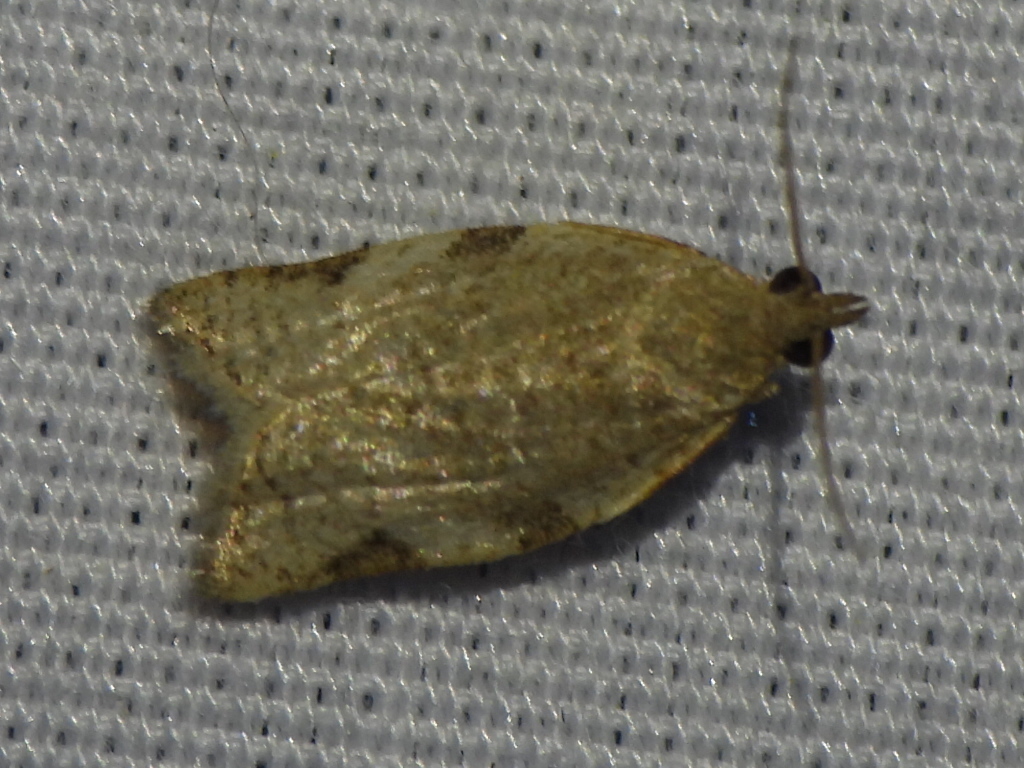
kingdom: Animalia
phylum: Arthropoda
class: Insecta
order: Lepidoptera
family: Tortricidae
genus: Clepsis
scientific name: Clepsis virescana
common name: Greenish apple moth
